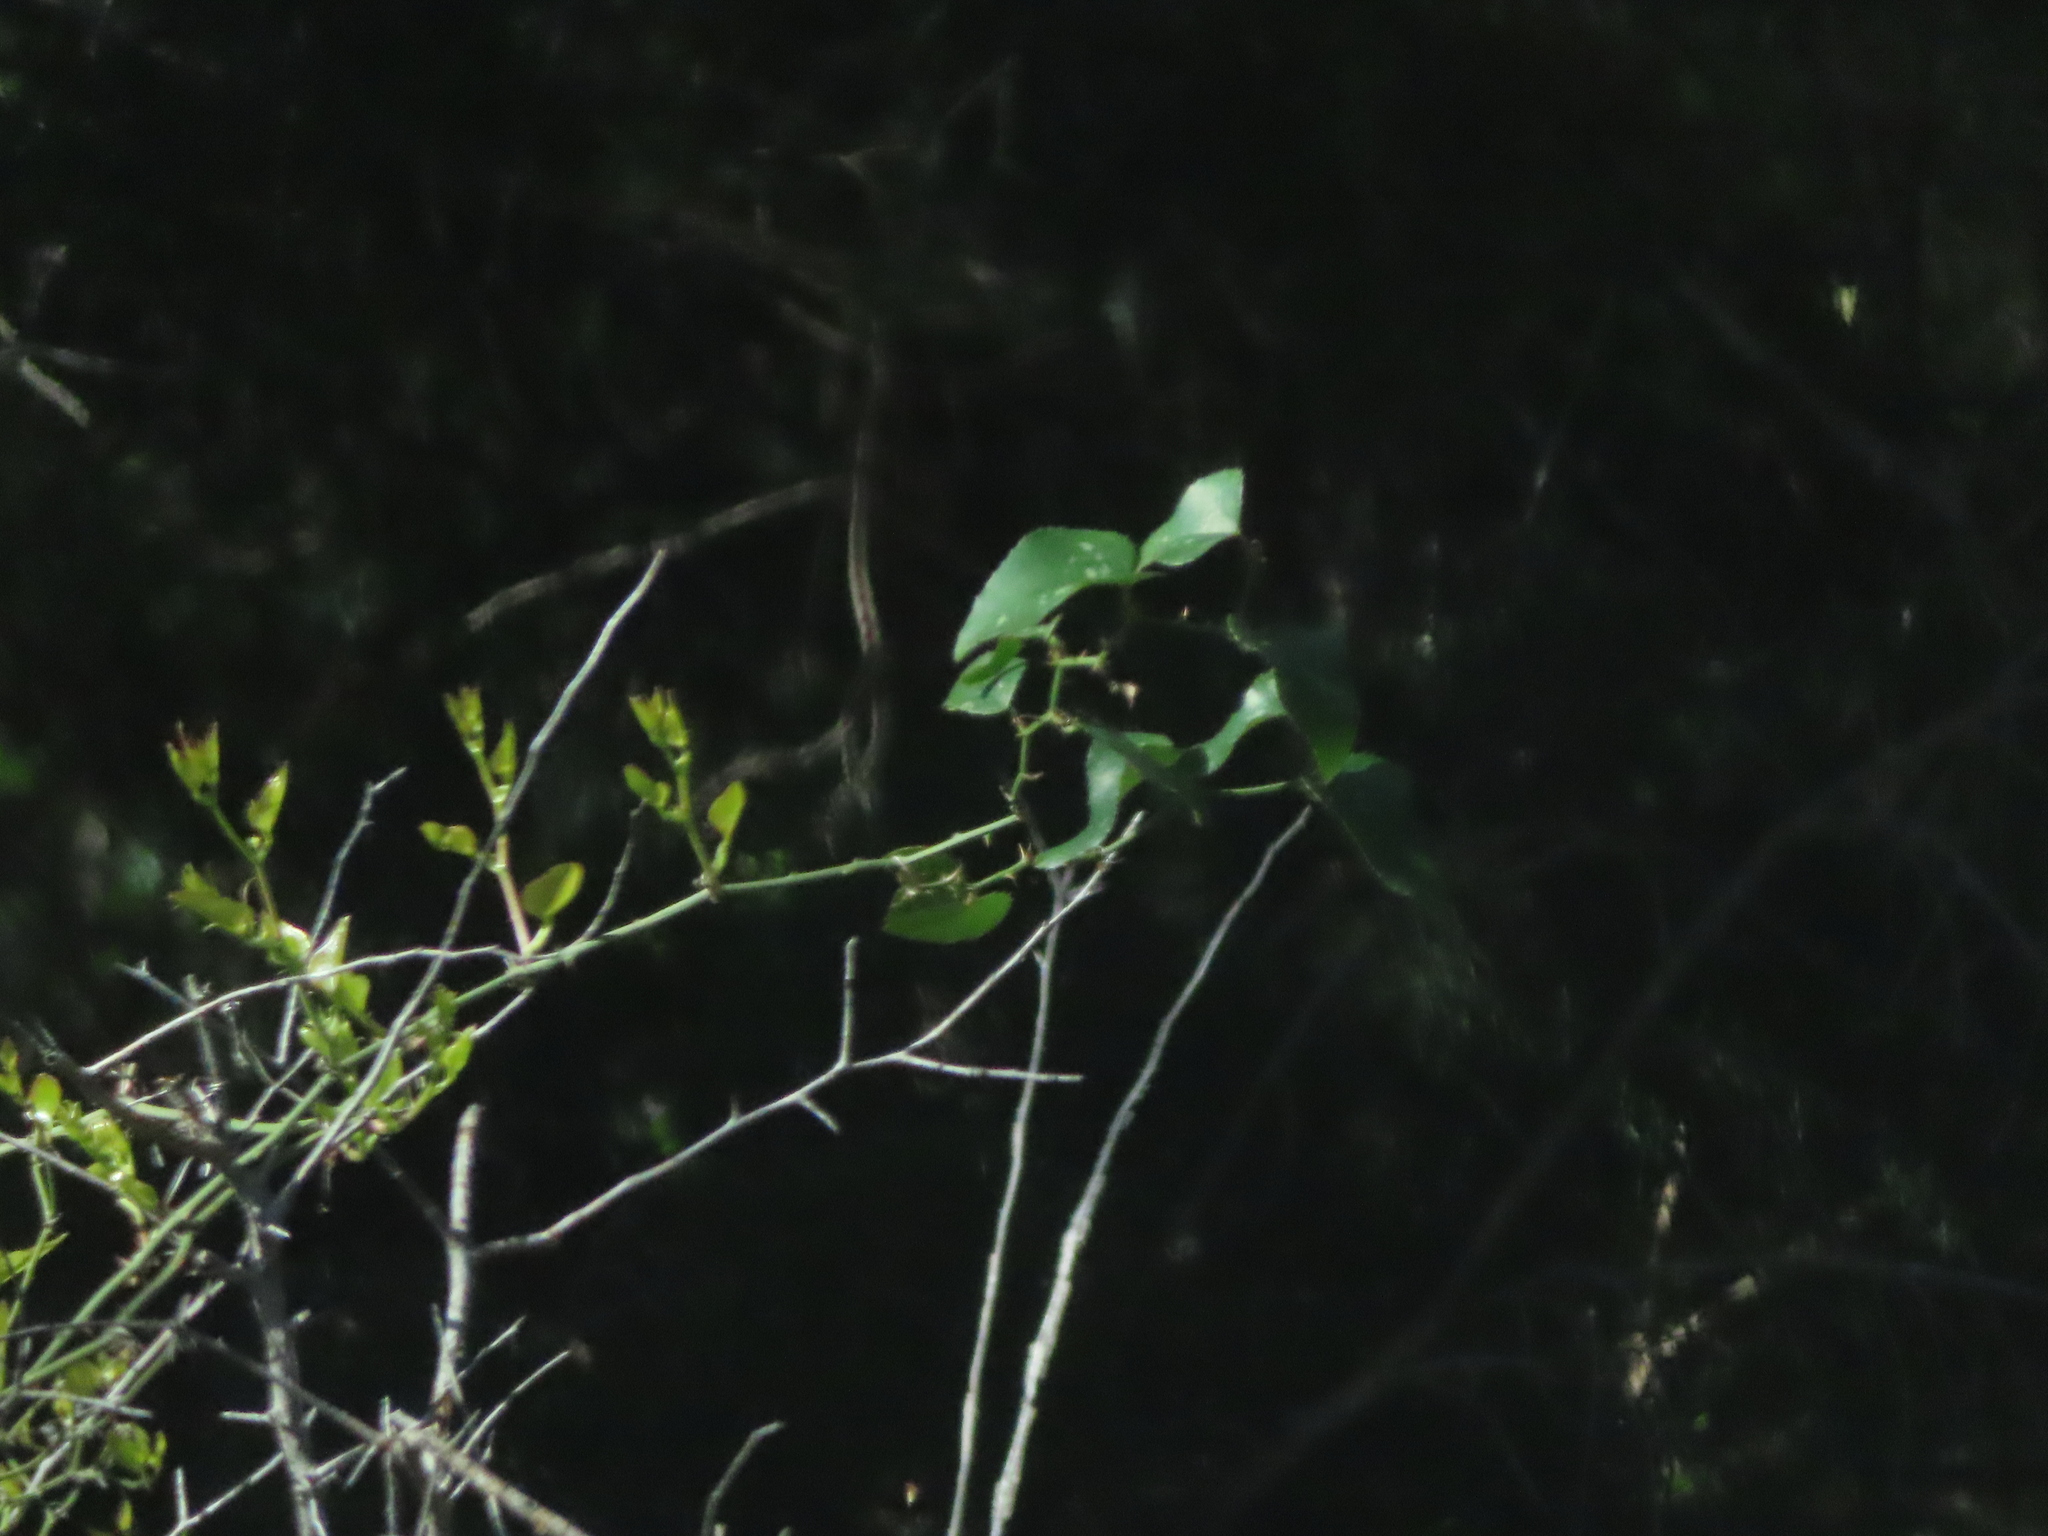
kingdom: Plantae
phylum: Tracheophyta
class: Liliopsida
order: Liliales
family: Smilacaceae
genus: Smilax
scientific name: Smilax bona-nox
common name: Catbrier
